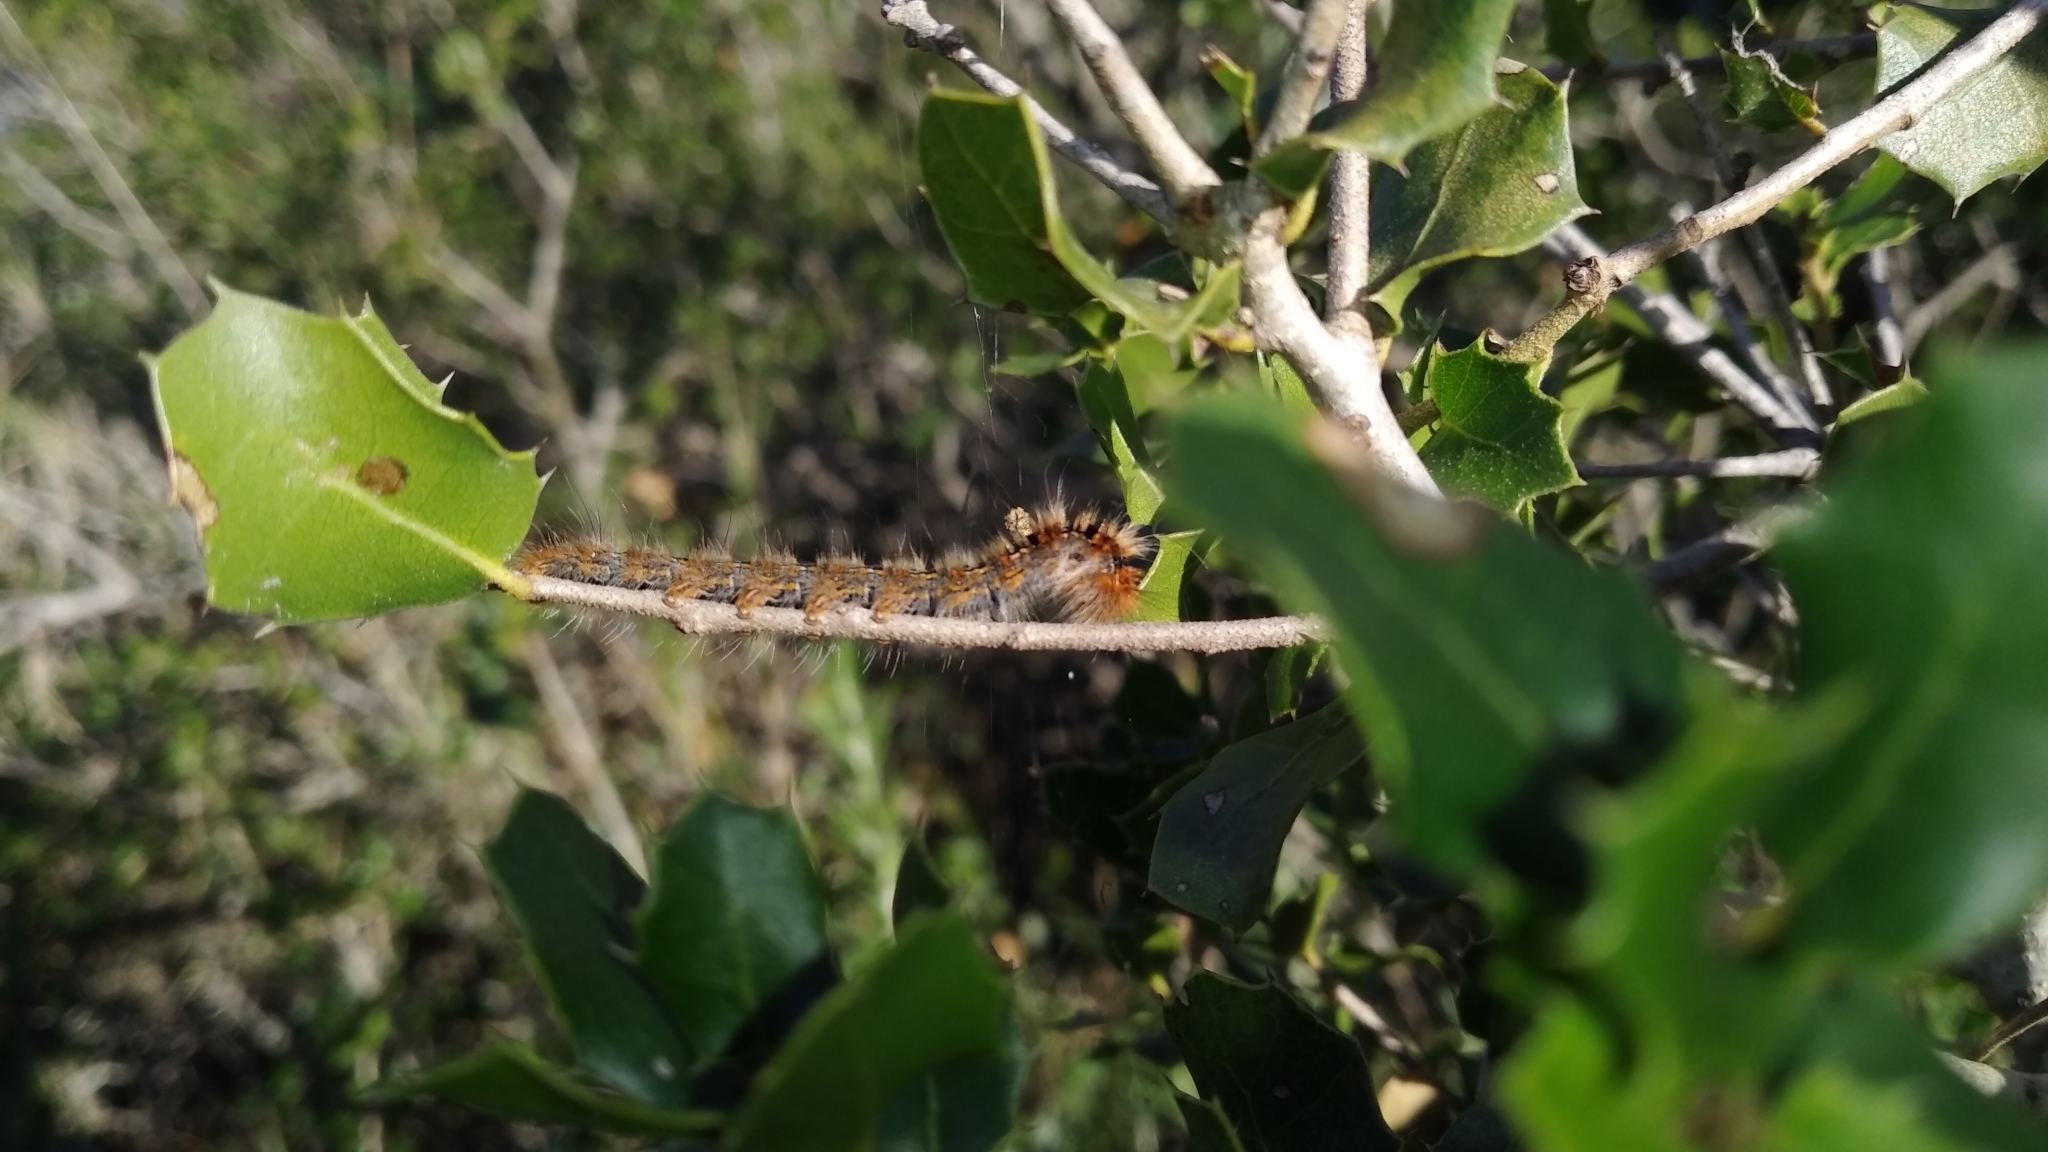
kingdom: Animalia
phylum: Arthropoda
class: Insecta
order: Lepidoptera
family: Lasiocampidae
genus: Lasiocampa
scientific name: Lasiocampa quercus
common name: Oak eggar
